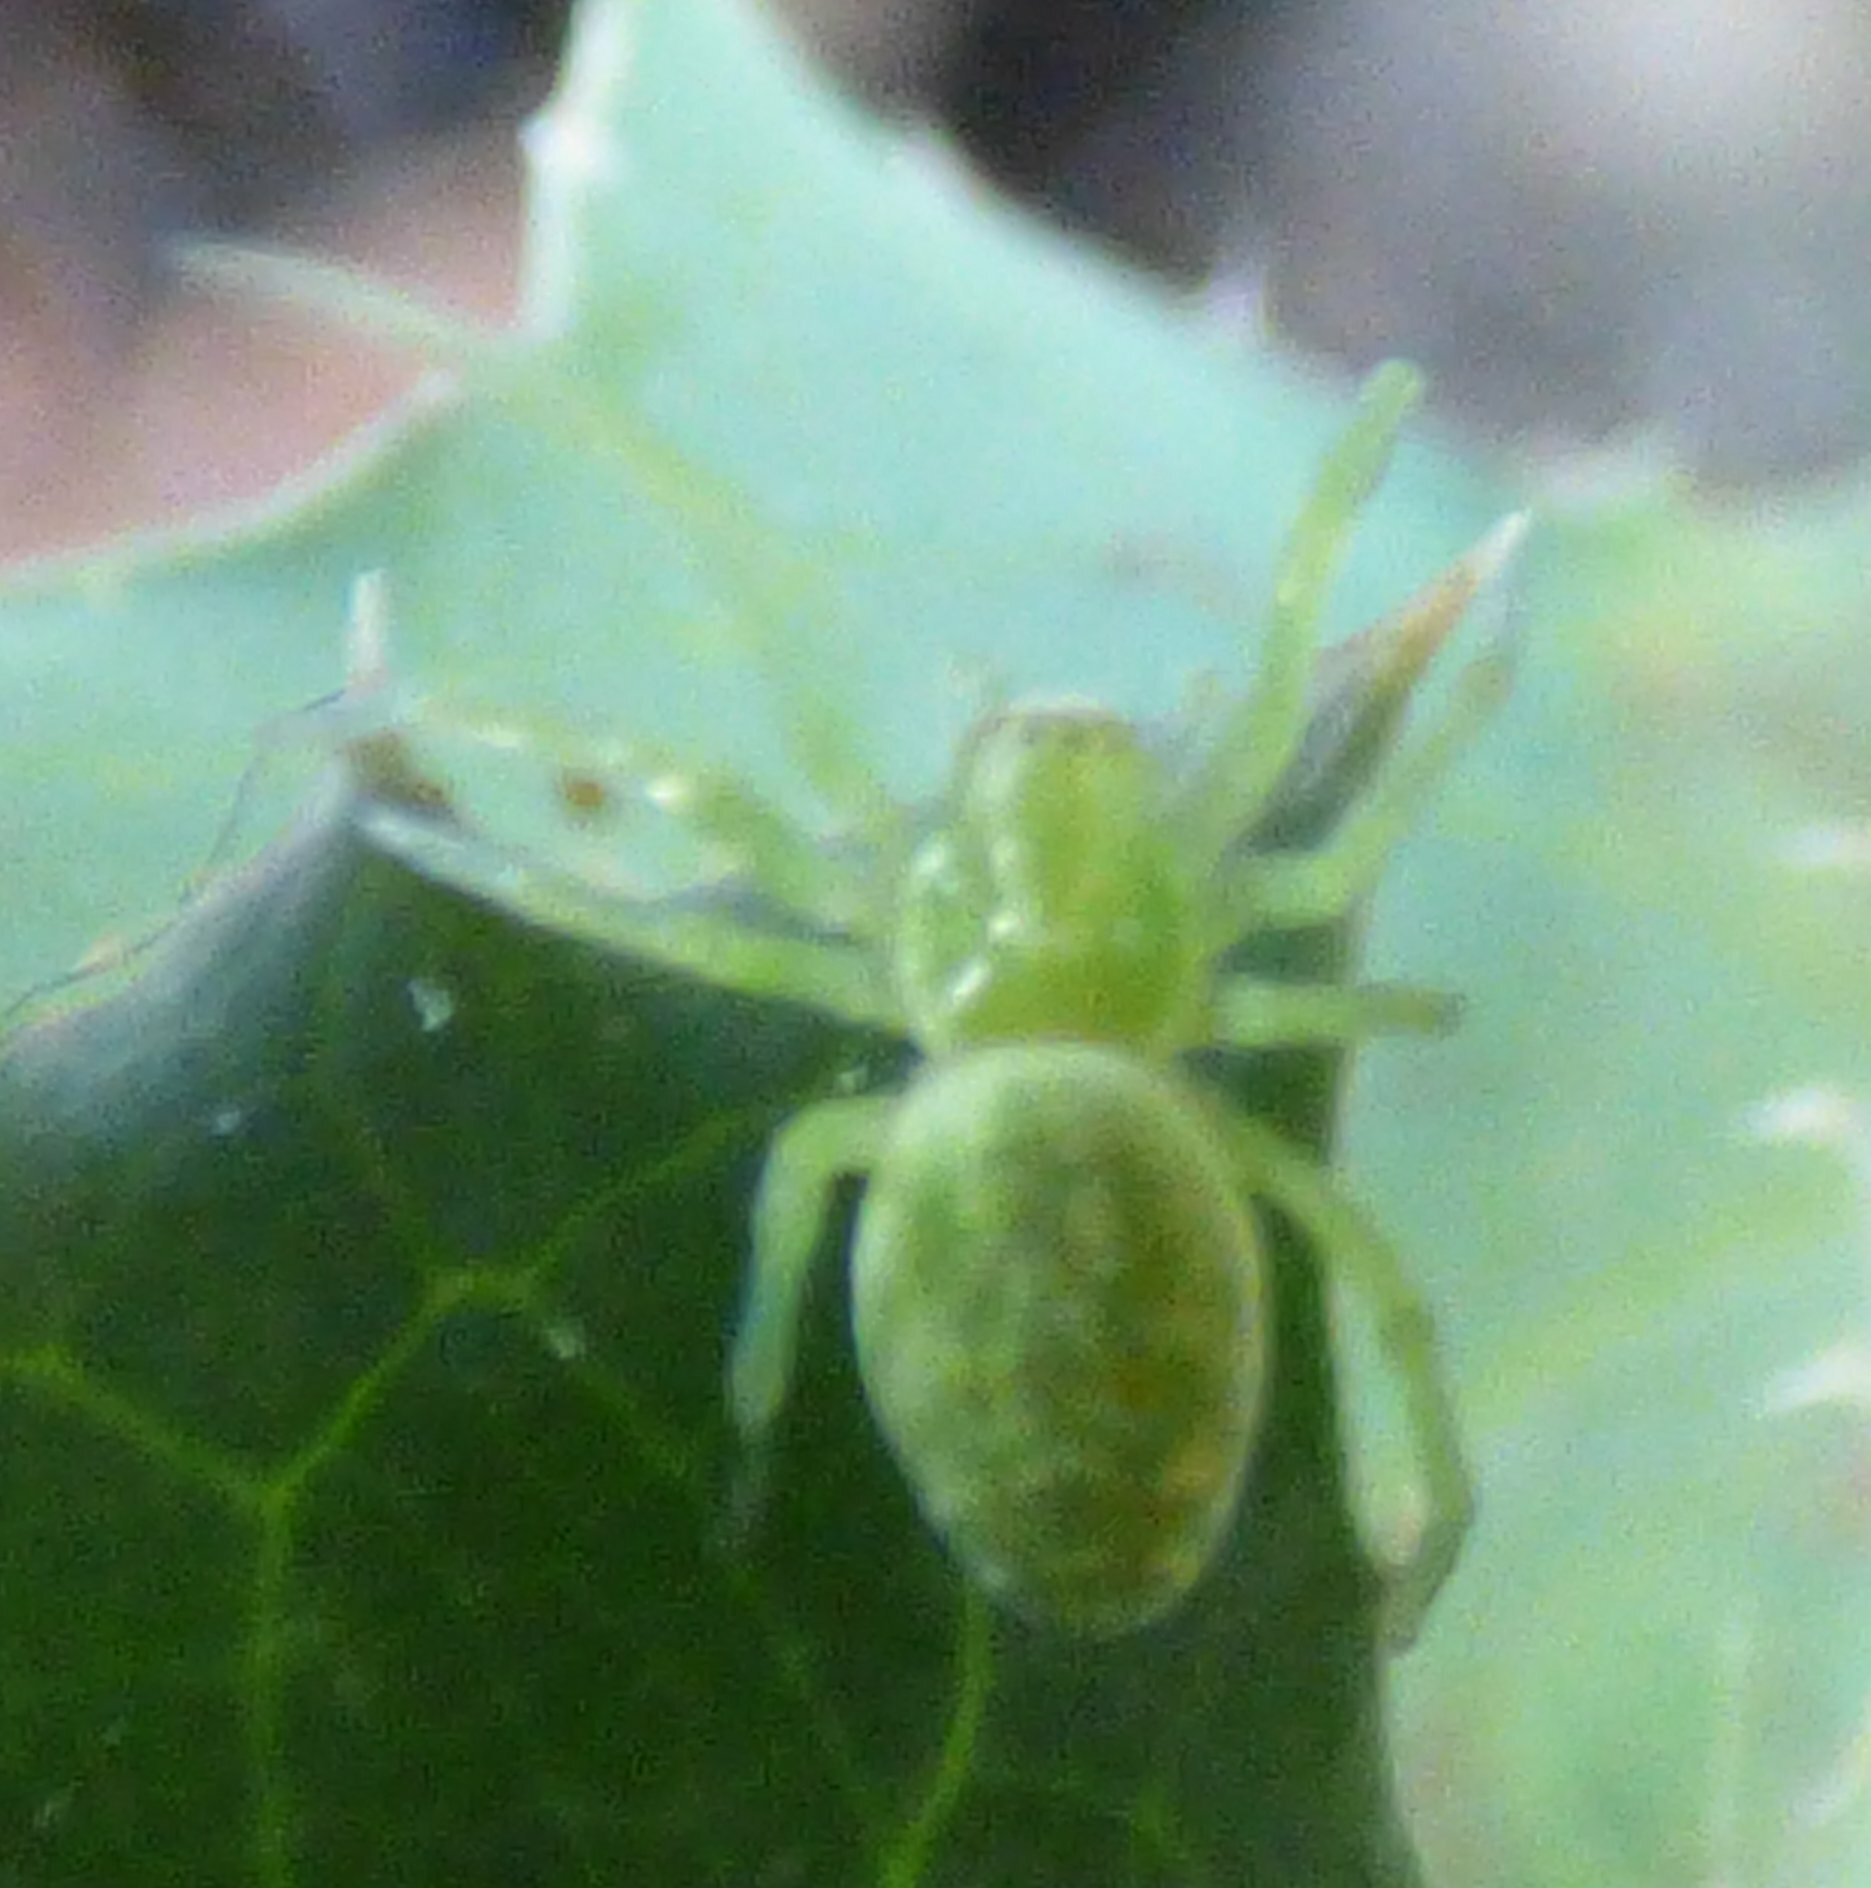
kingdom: Animalia
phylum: Arthropoda
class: Arachnida
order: Araneae
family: Dictynidae
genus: Nigma
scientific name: Nigma walckenaeri
